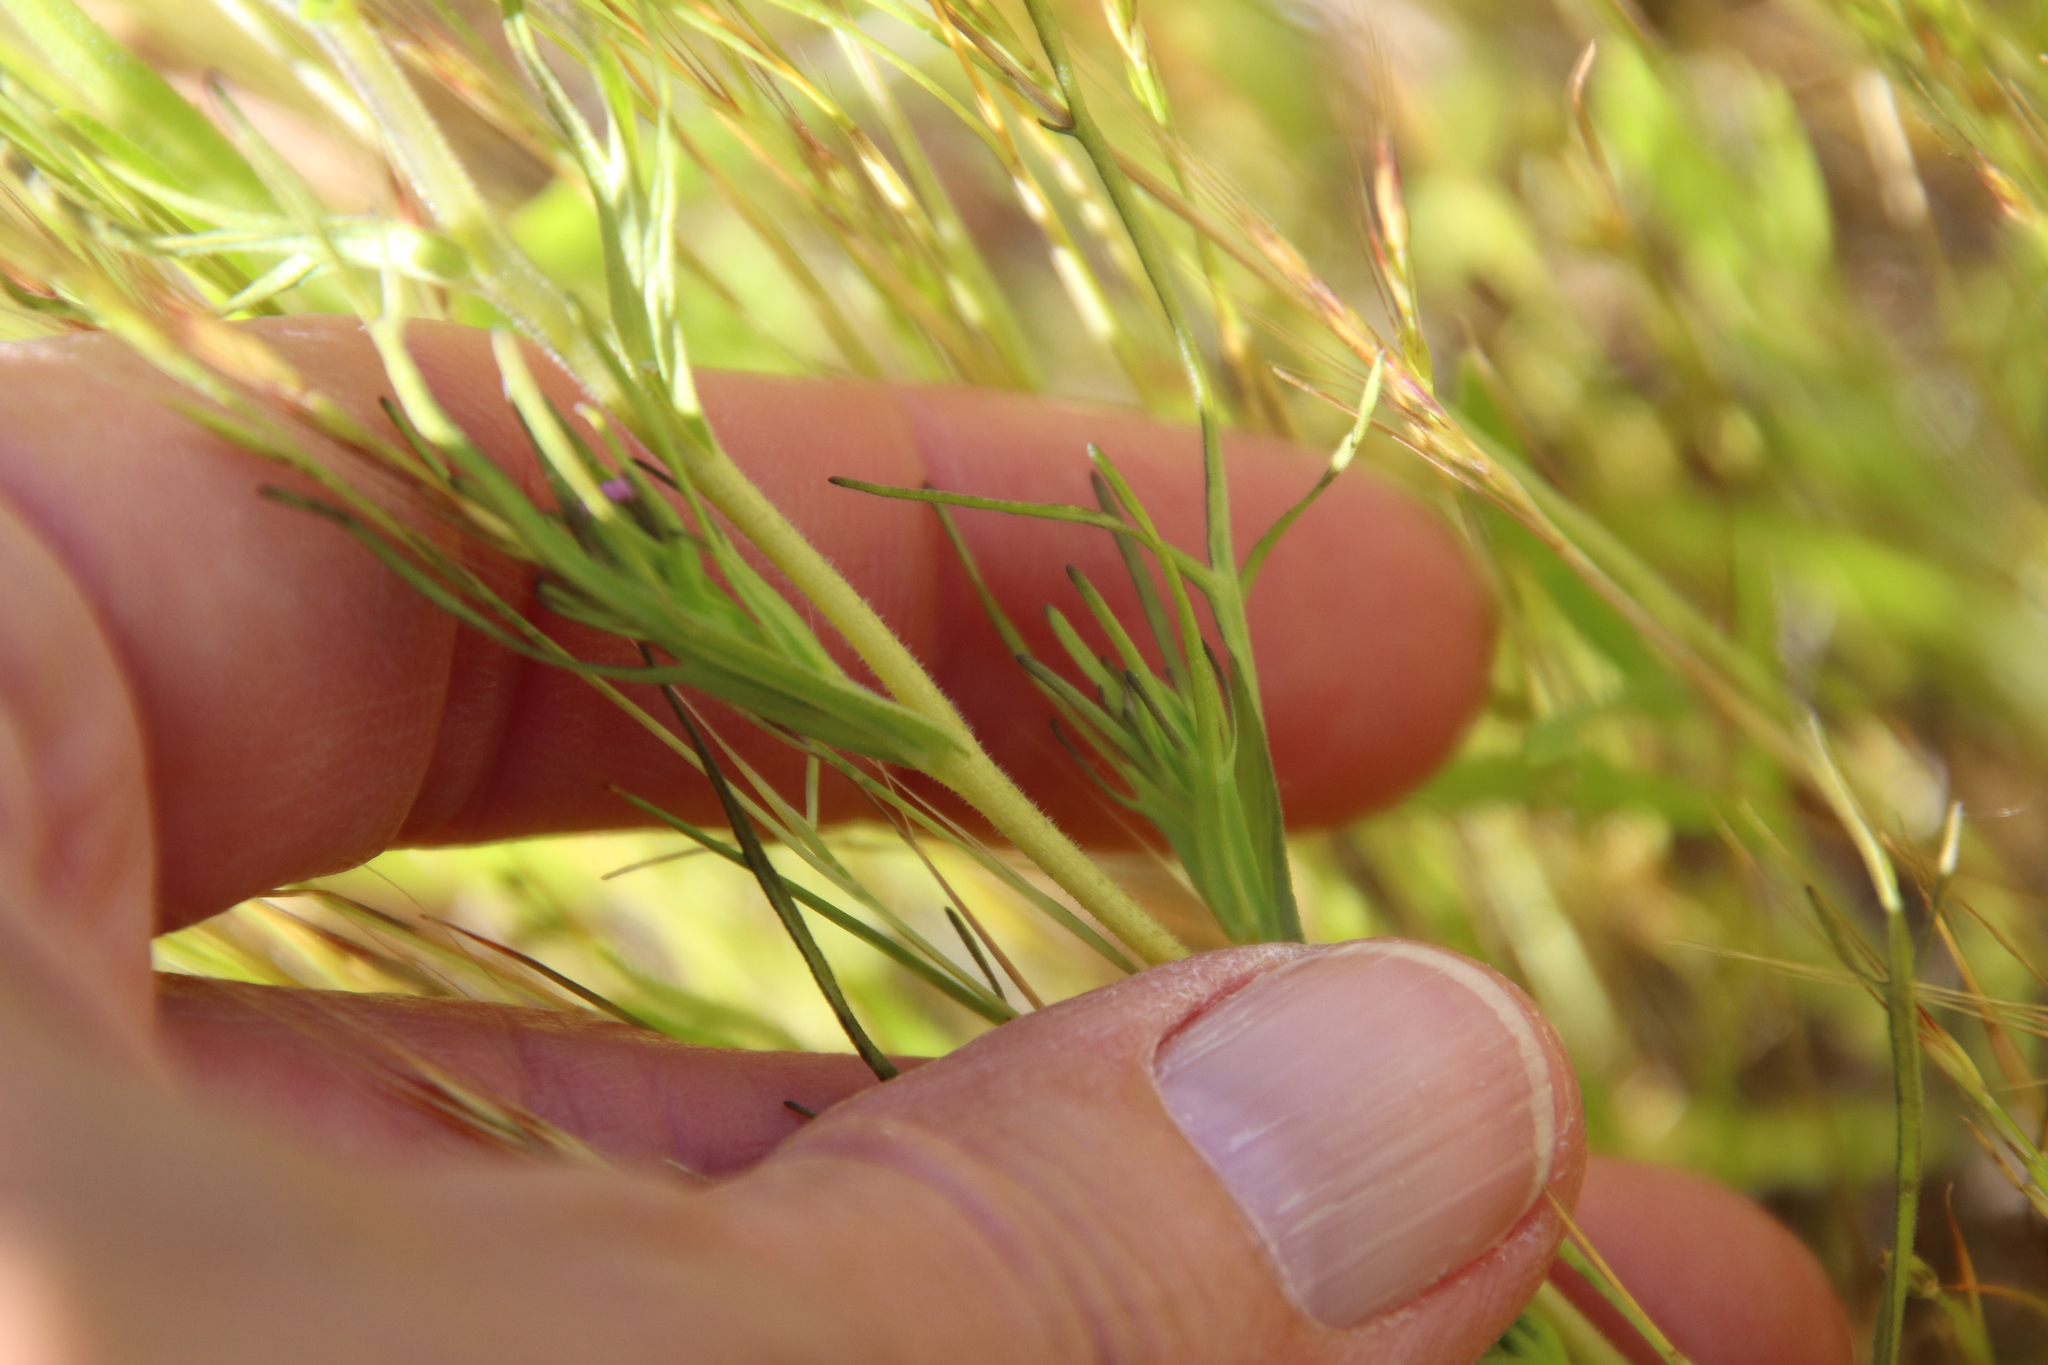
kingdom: Plantae
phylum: Tracheophyta
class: Magnoliopsida
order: Lamiales
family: Orobanchaceae
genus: Castilleja
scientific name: Castilleja densiflora
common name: Dense-flower indian paintbrush
